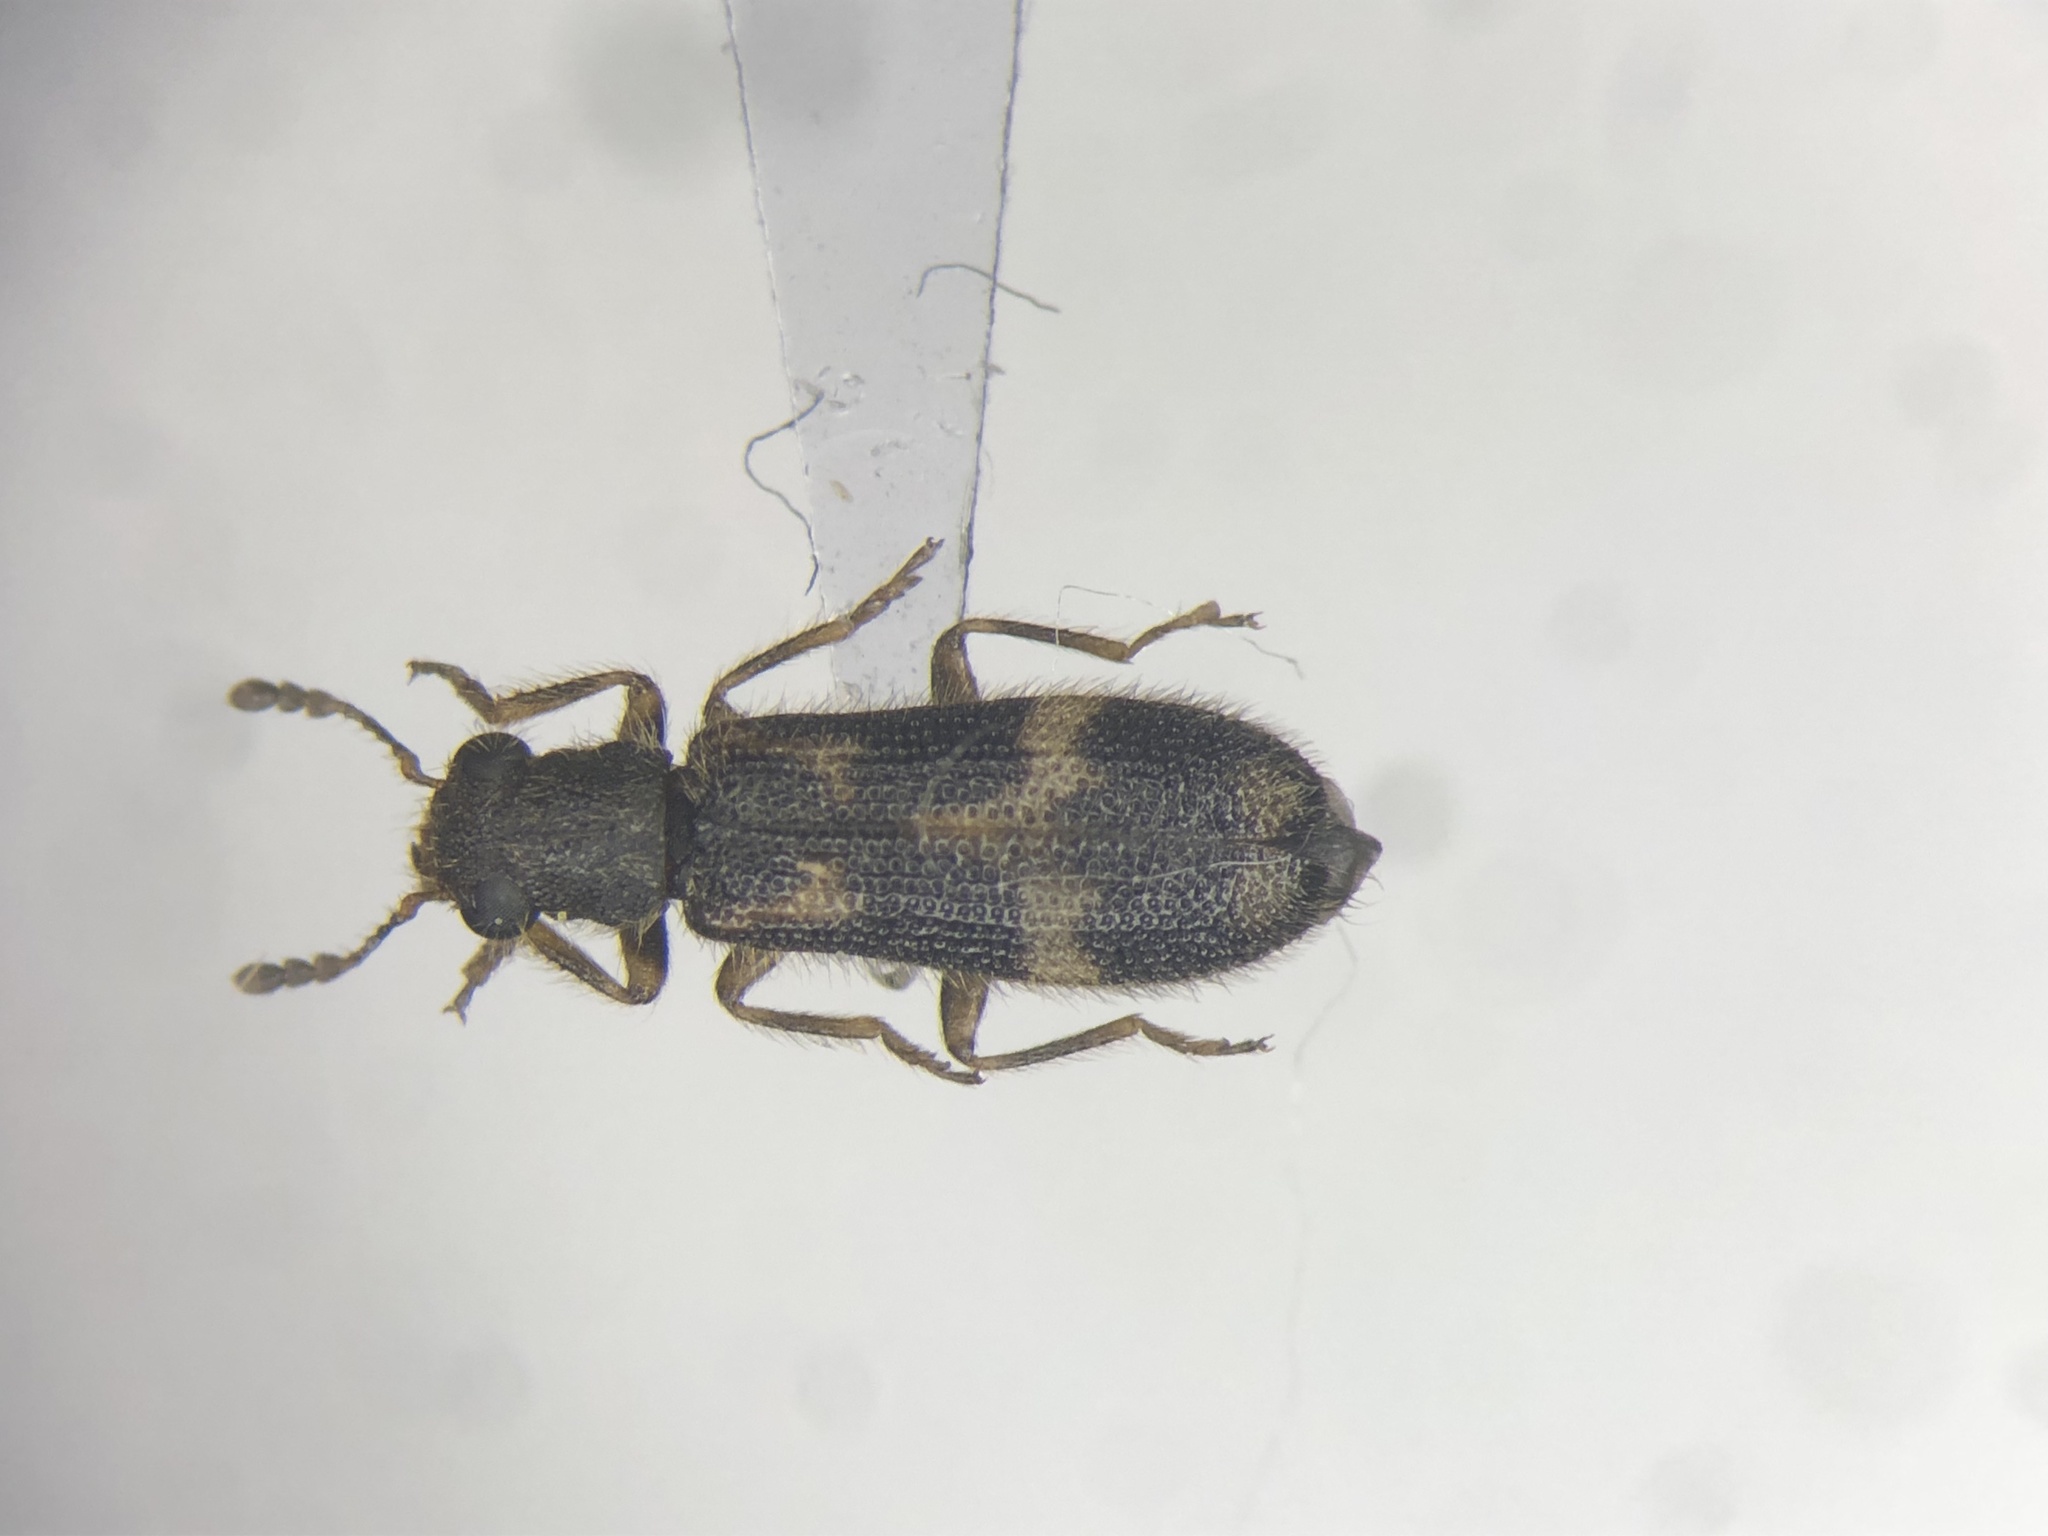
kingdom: Animalia
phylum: Arthropoda
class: Insecta
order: Coleoptera
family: Cleridae
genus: Madoniella
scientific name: Madoniella dislocata
